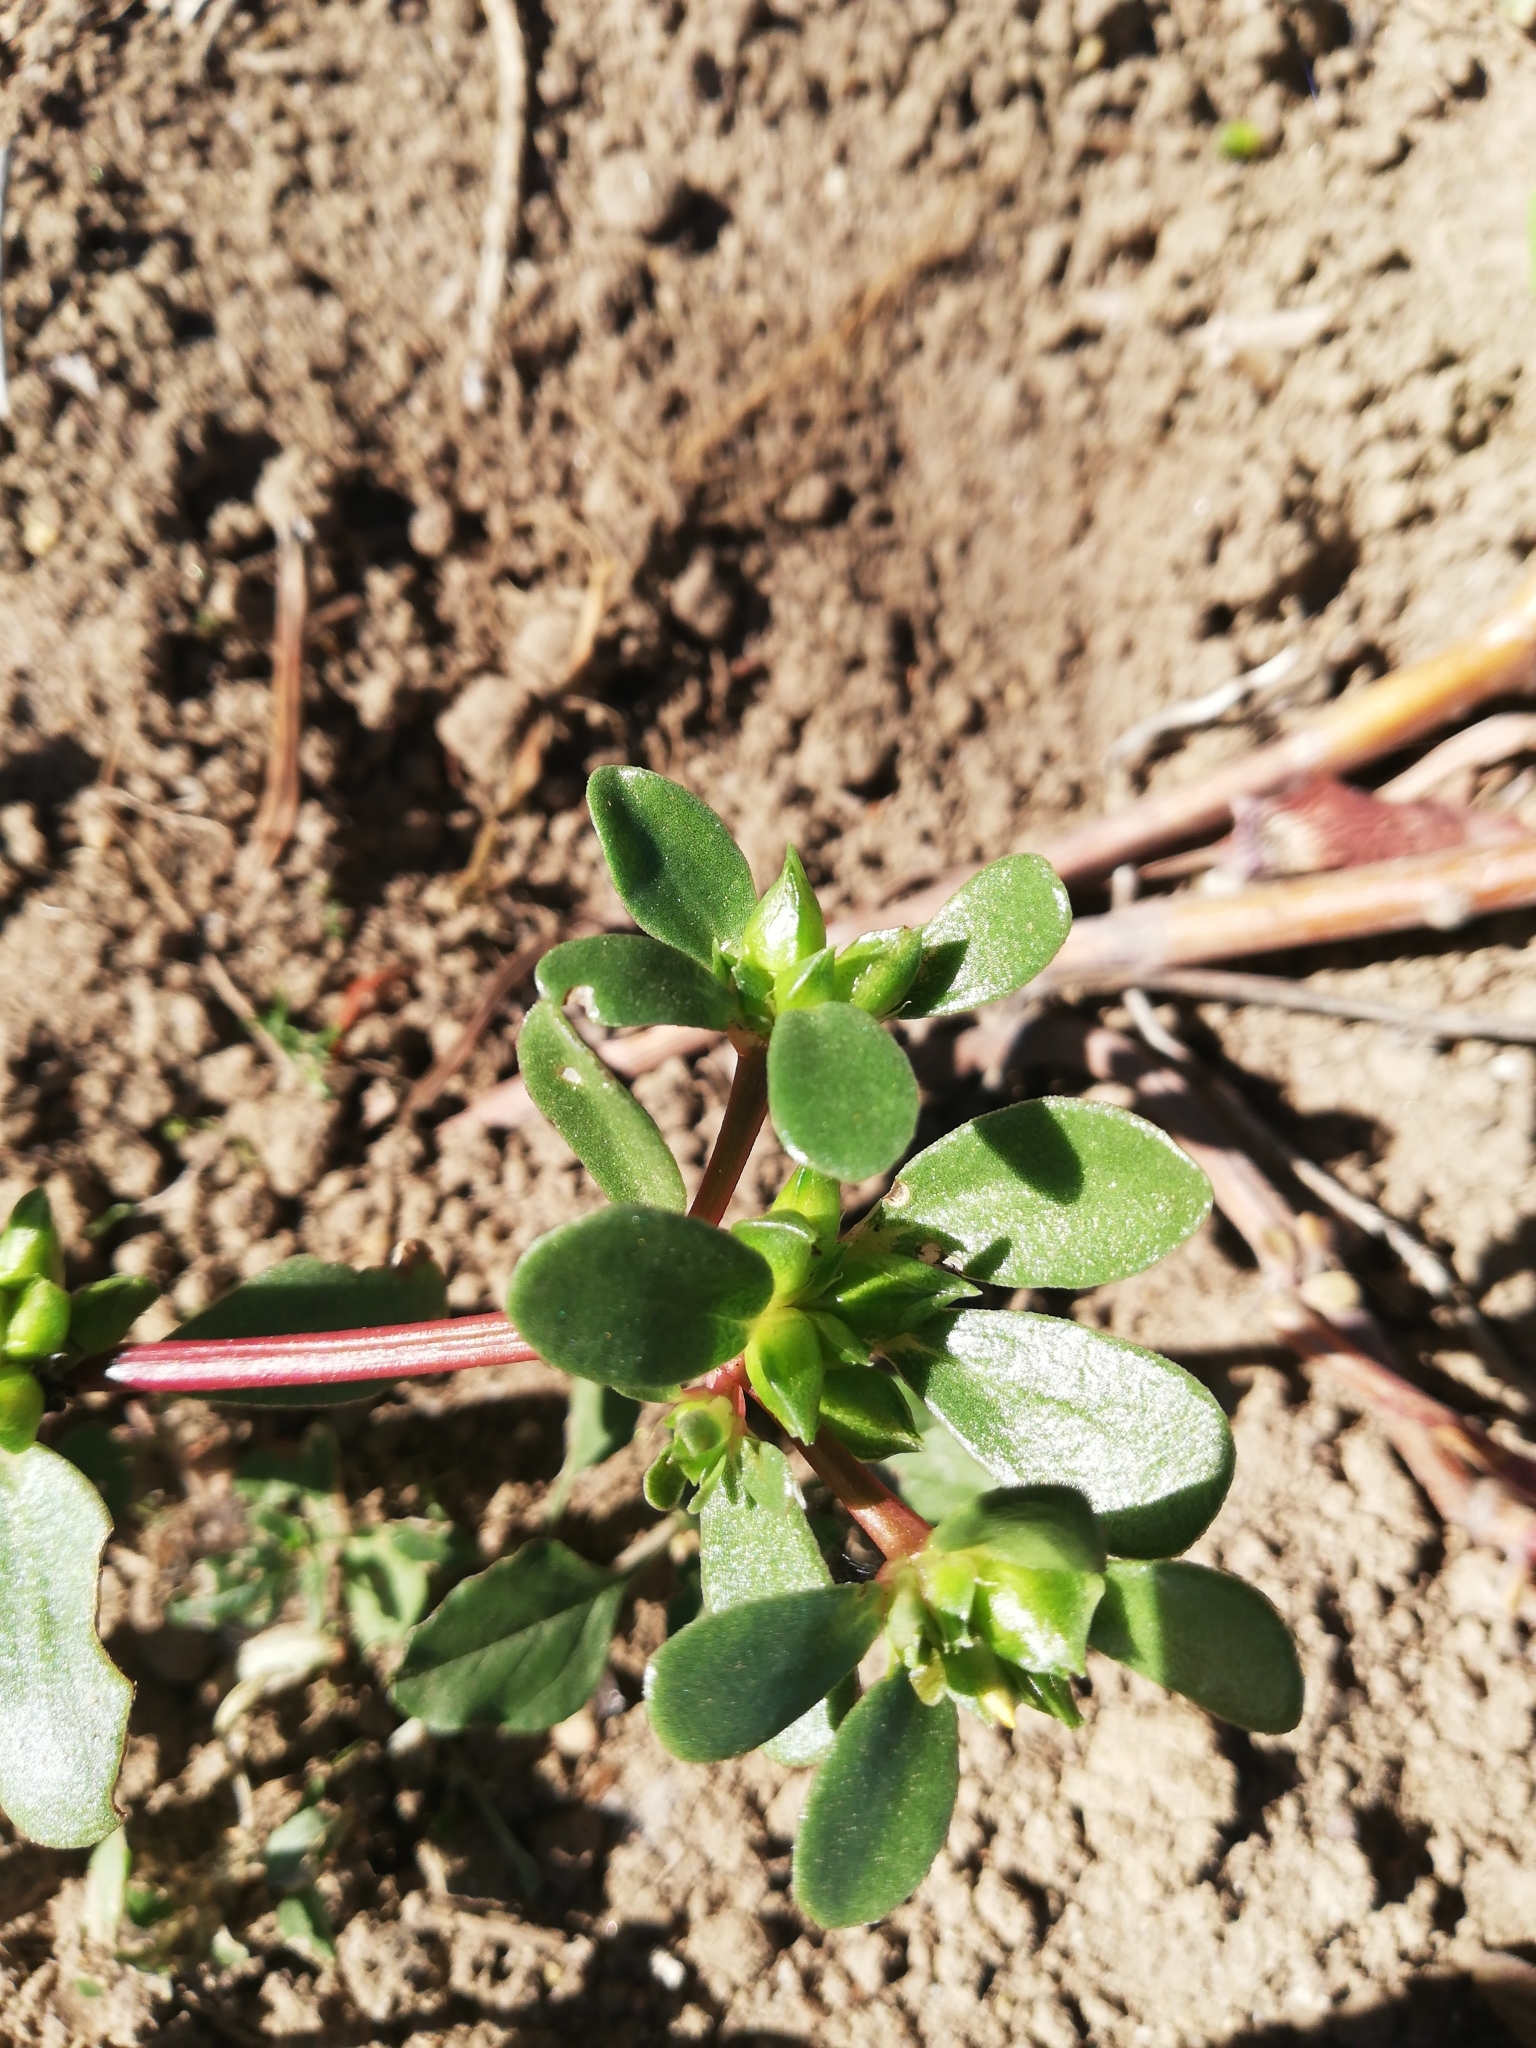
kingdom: Plantae
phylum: Tracheophyta
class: Magnoliopsida
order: Caryophyllales
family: Portulacaceae
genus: Portulaca
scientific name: Portulaca oleracea
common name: Common purslane
